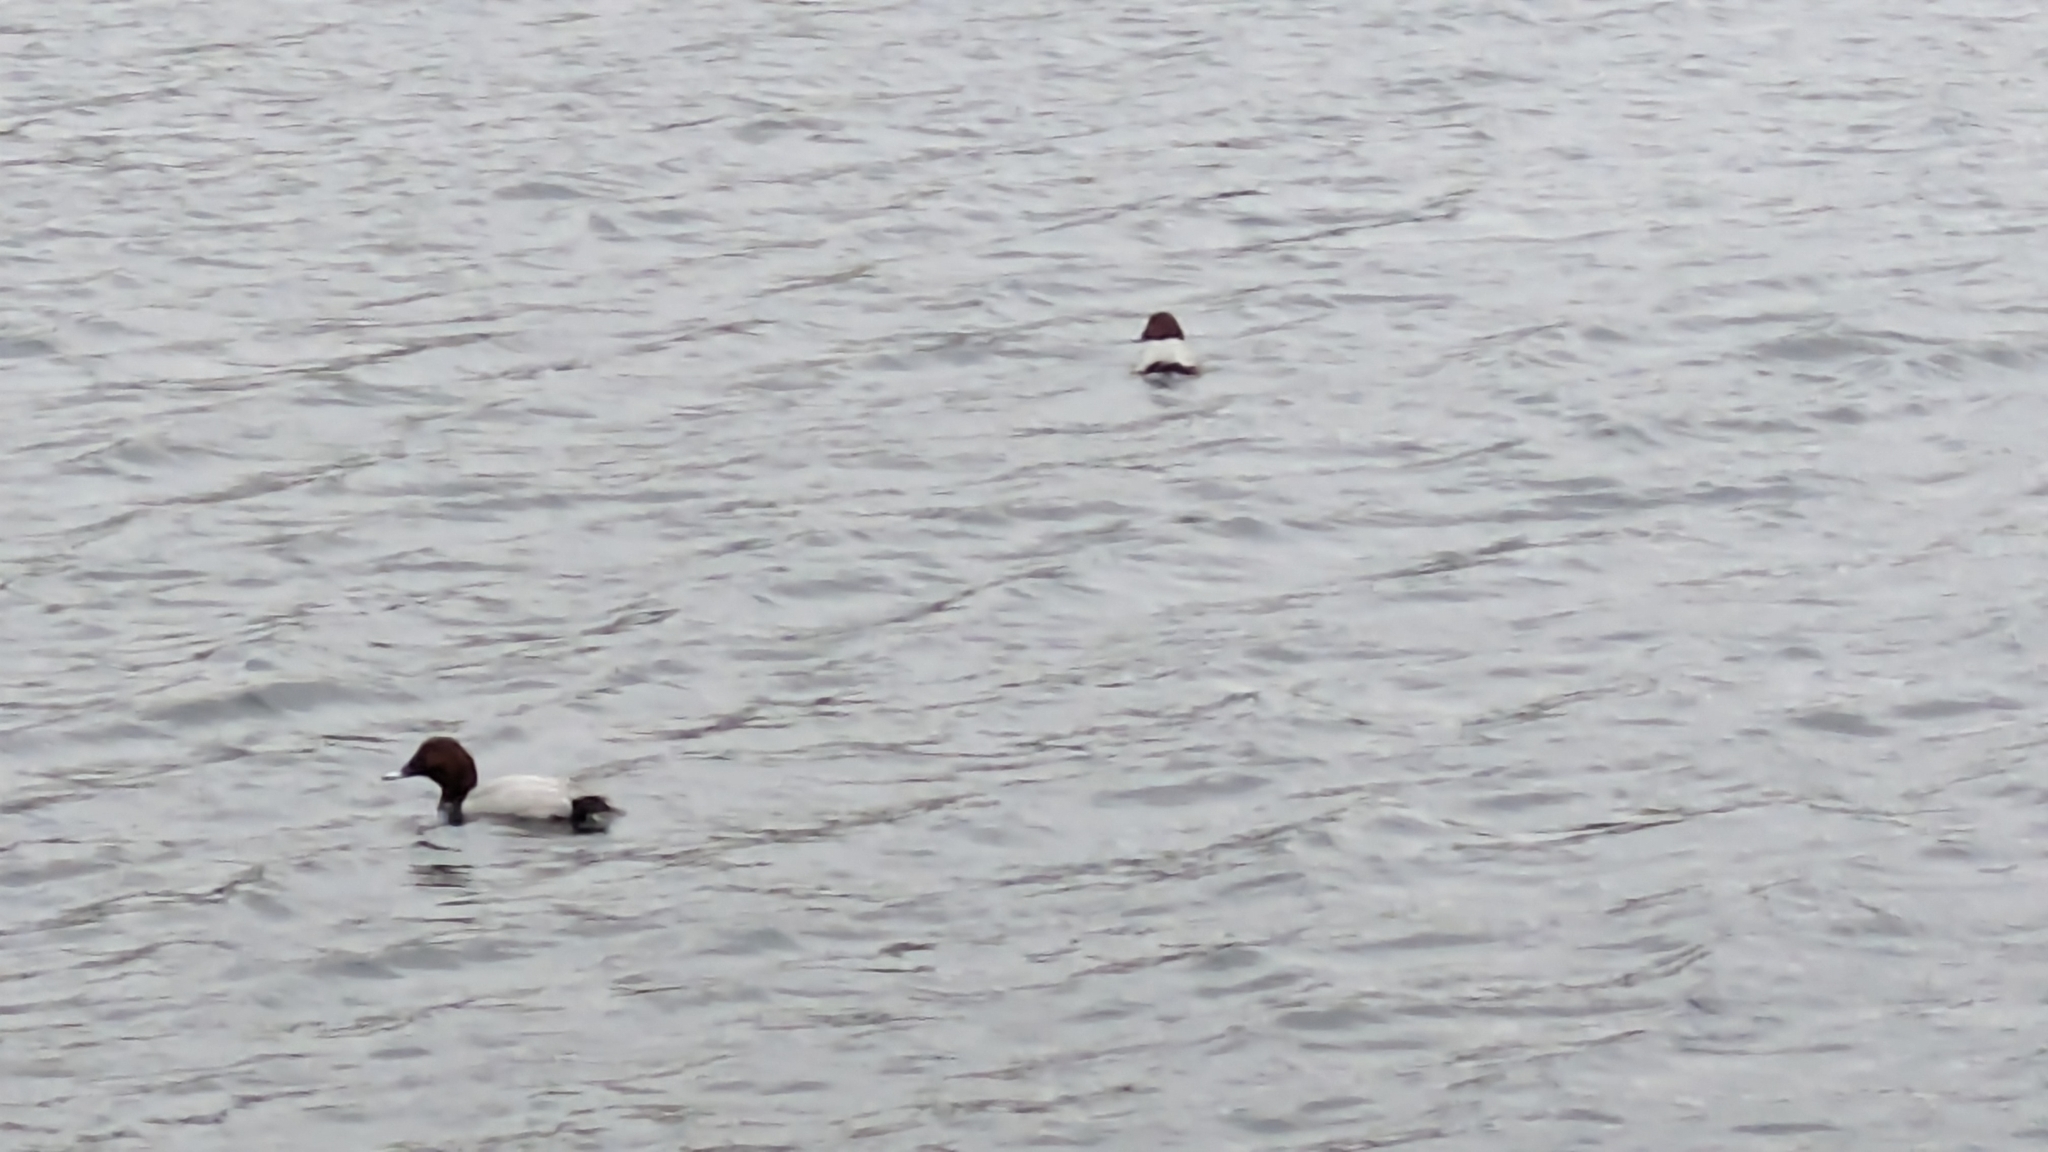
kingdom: Animalia
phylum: Chordata
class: Aves
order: Anseriformes
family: Anatidae
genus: Aythya
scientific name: Aythya ferina
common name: Common pochard
